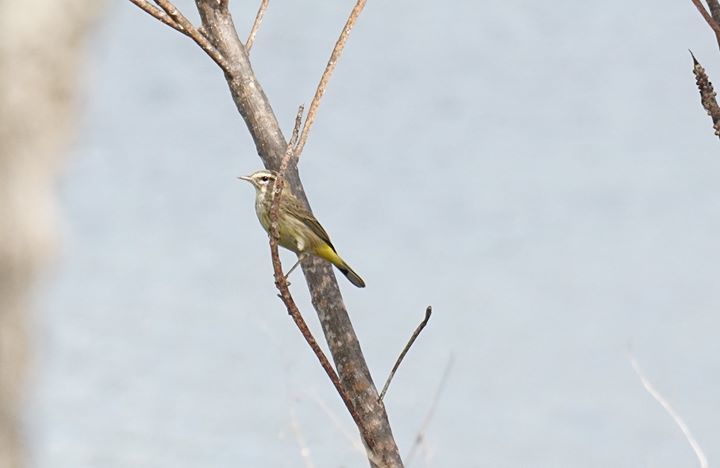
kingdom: Animalia
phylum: Chordata
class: Aves
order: Passeriformes
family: Parulidae
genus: Setophaga
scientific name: Setophaga palmarum
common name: Palm warbler
